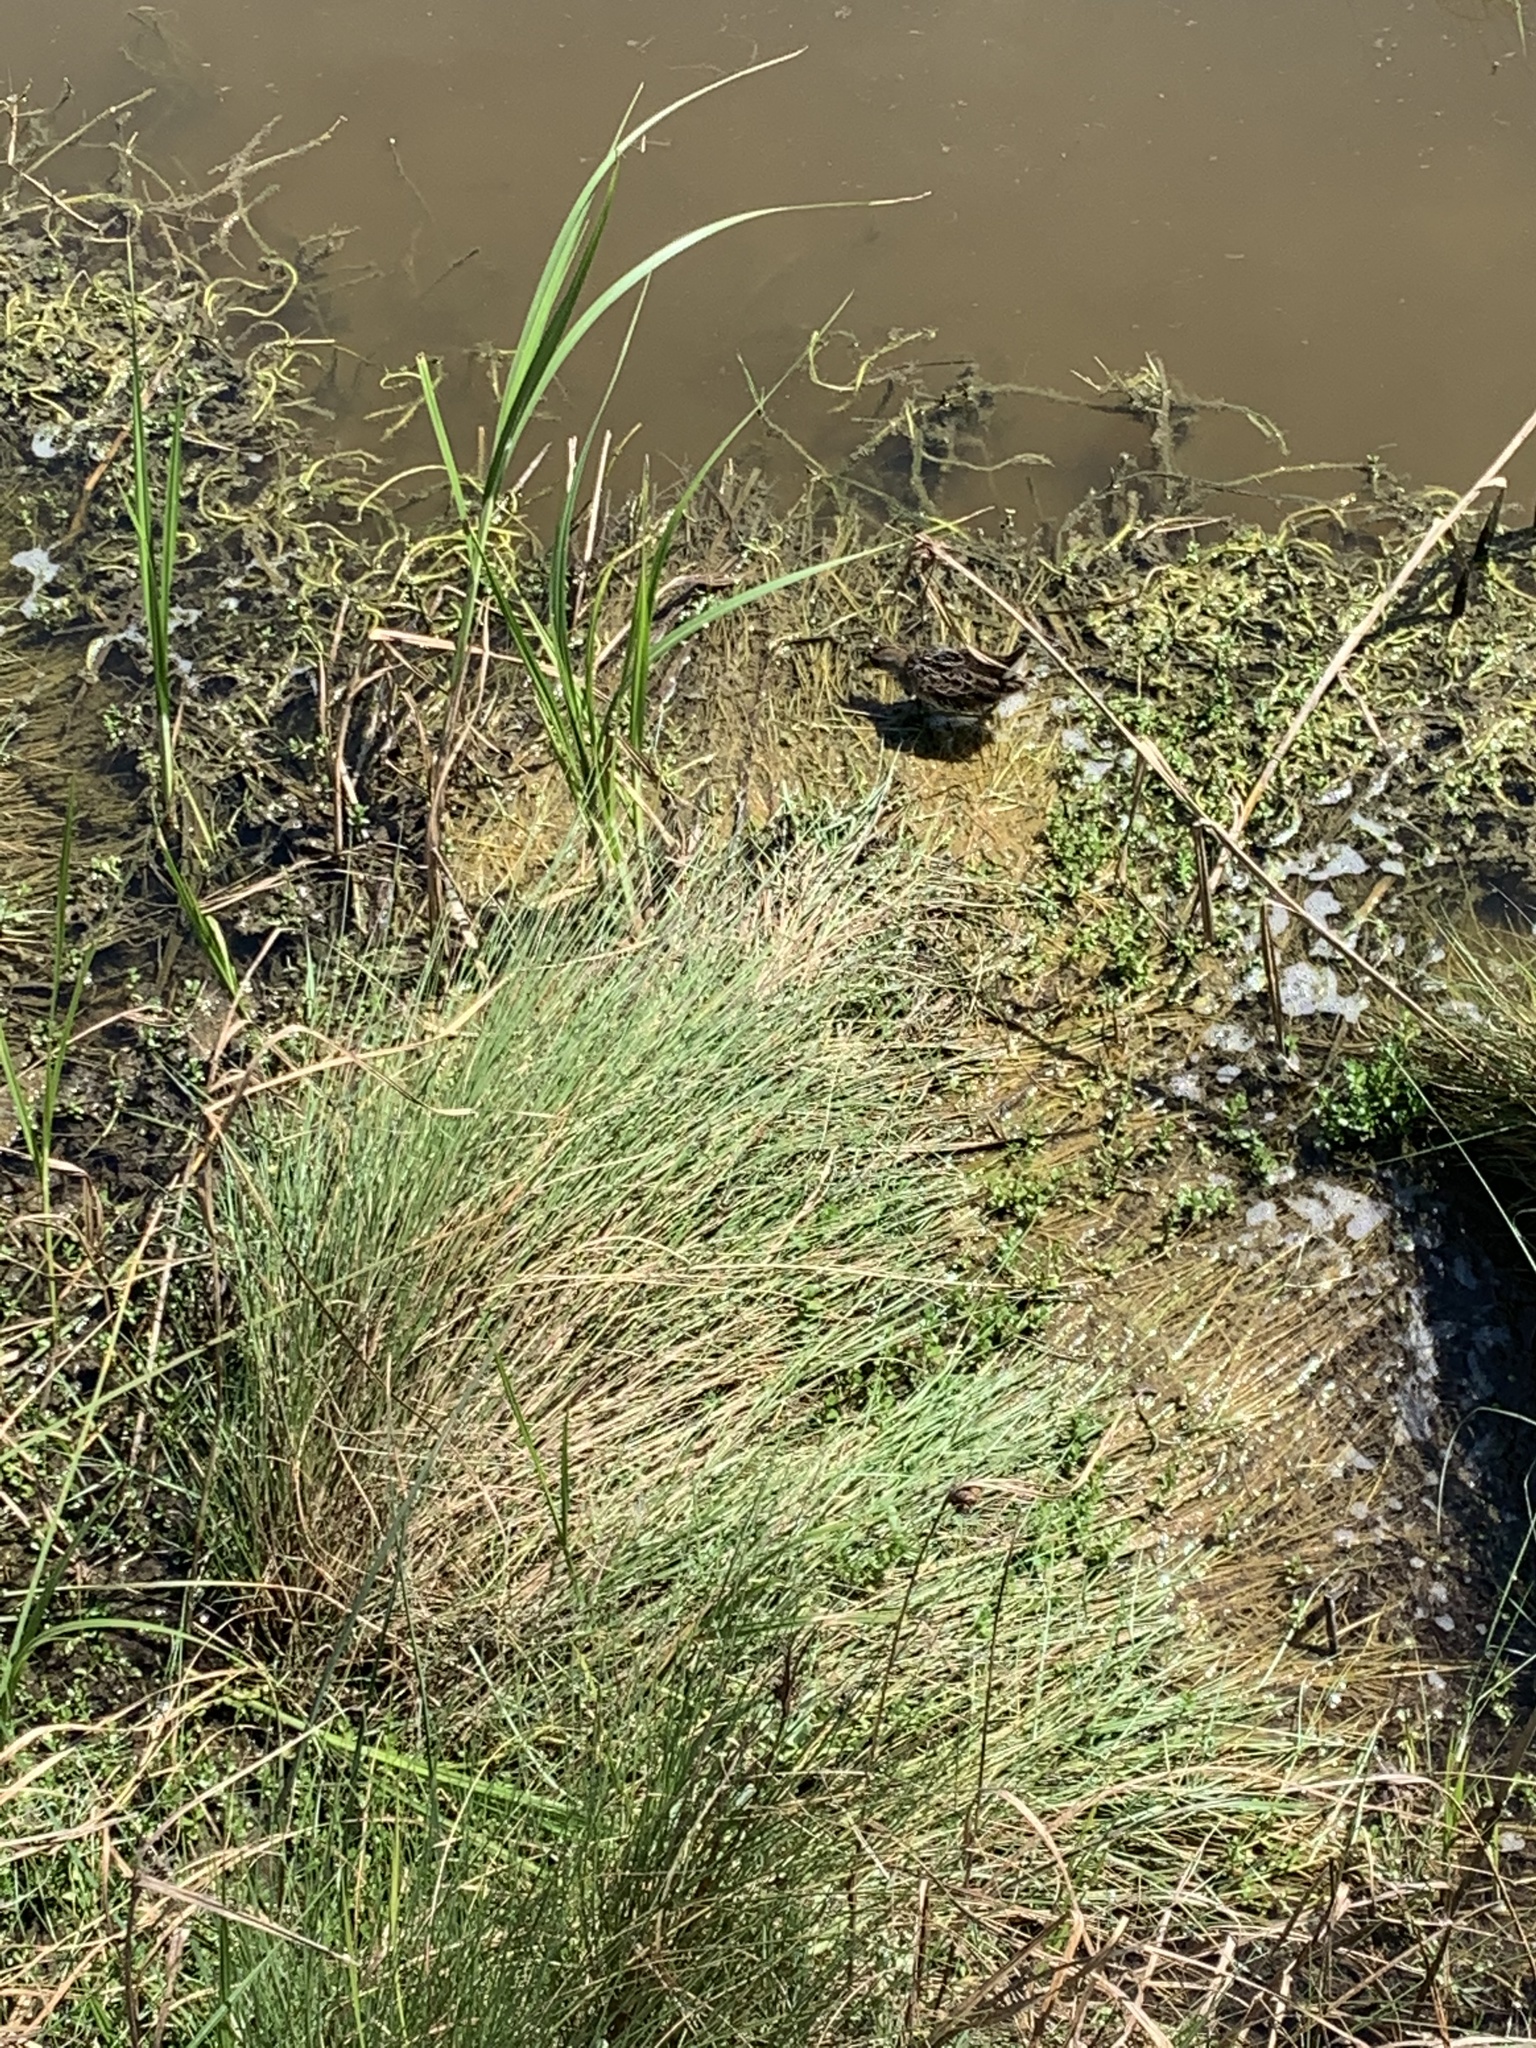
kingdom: Animalia
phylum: Chordata
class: Aves
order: Gruiformes
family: Rallidae
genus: Rallus
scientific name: Rallus crepitans
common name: Clapper rail
